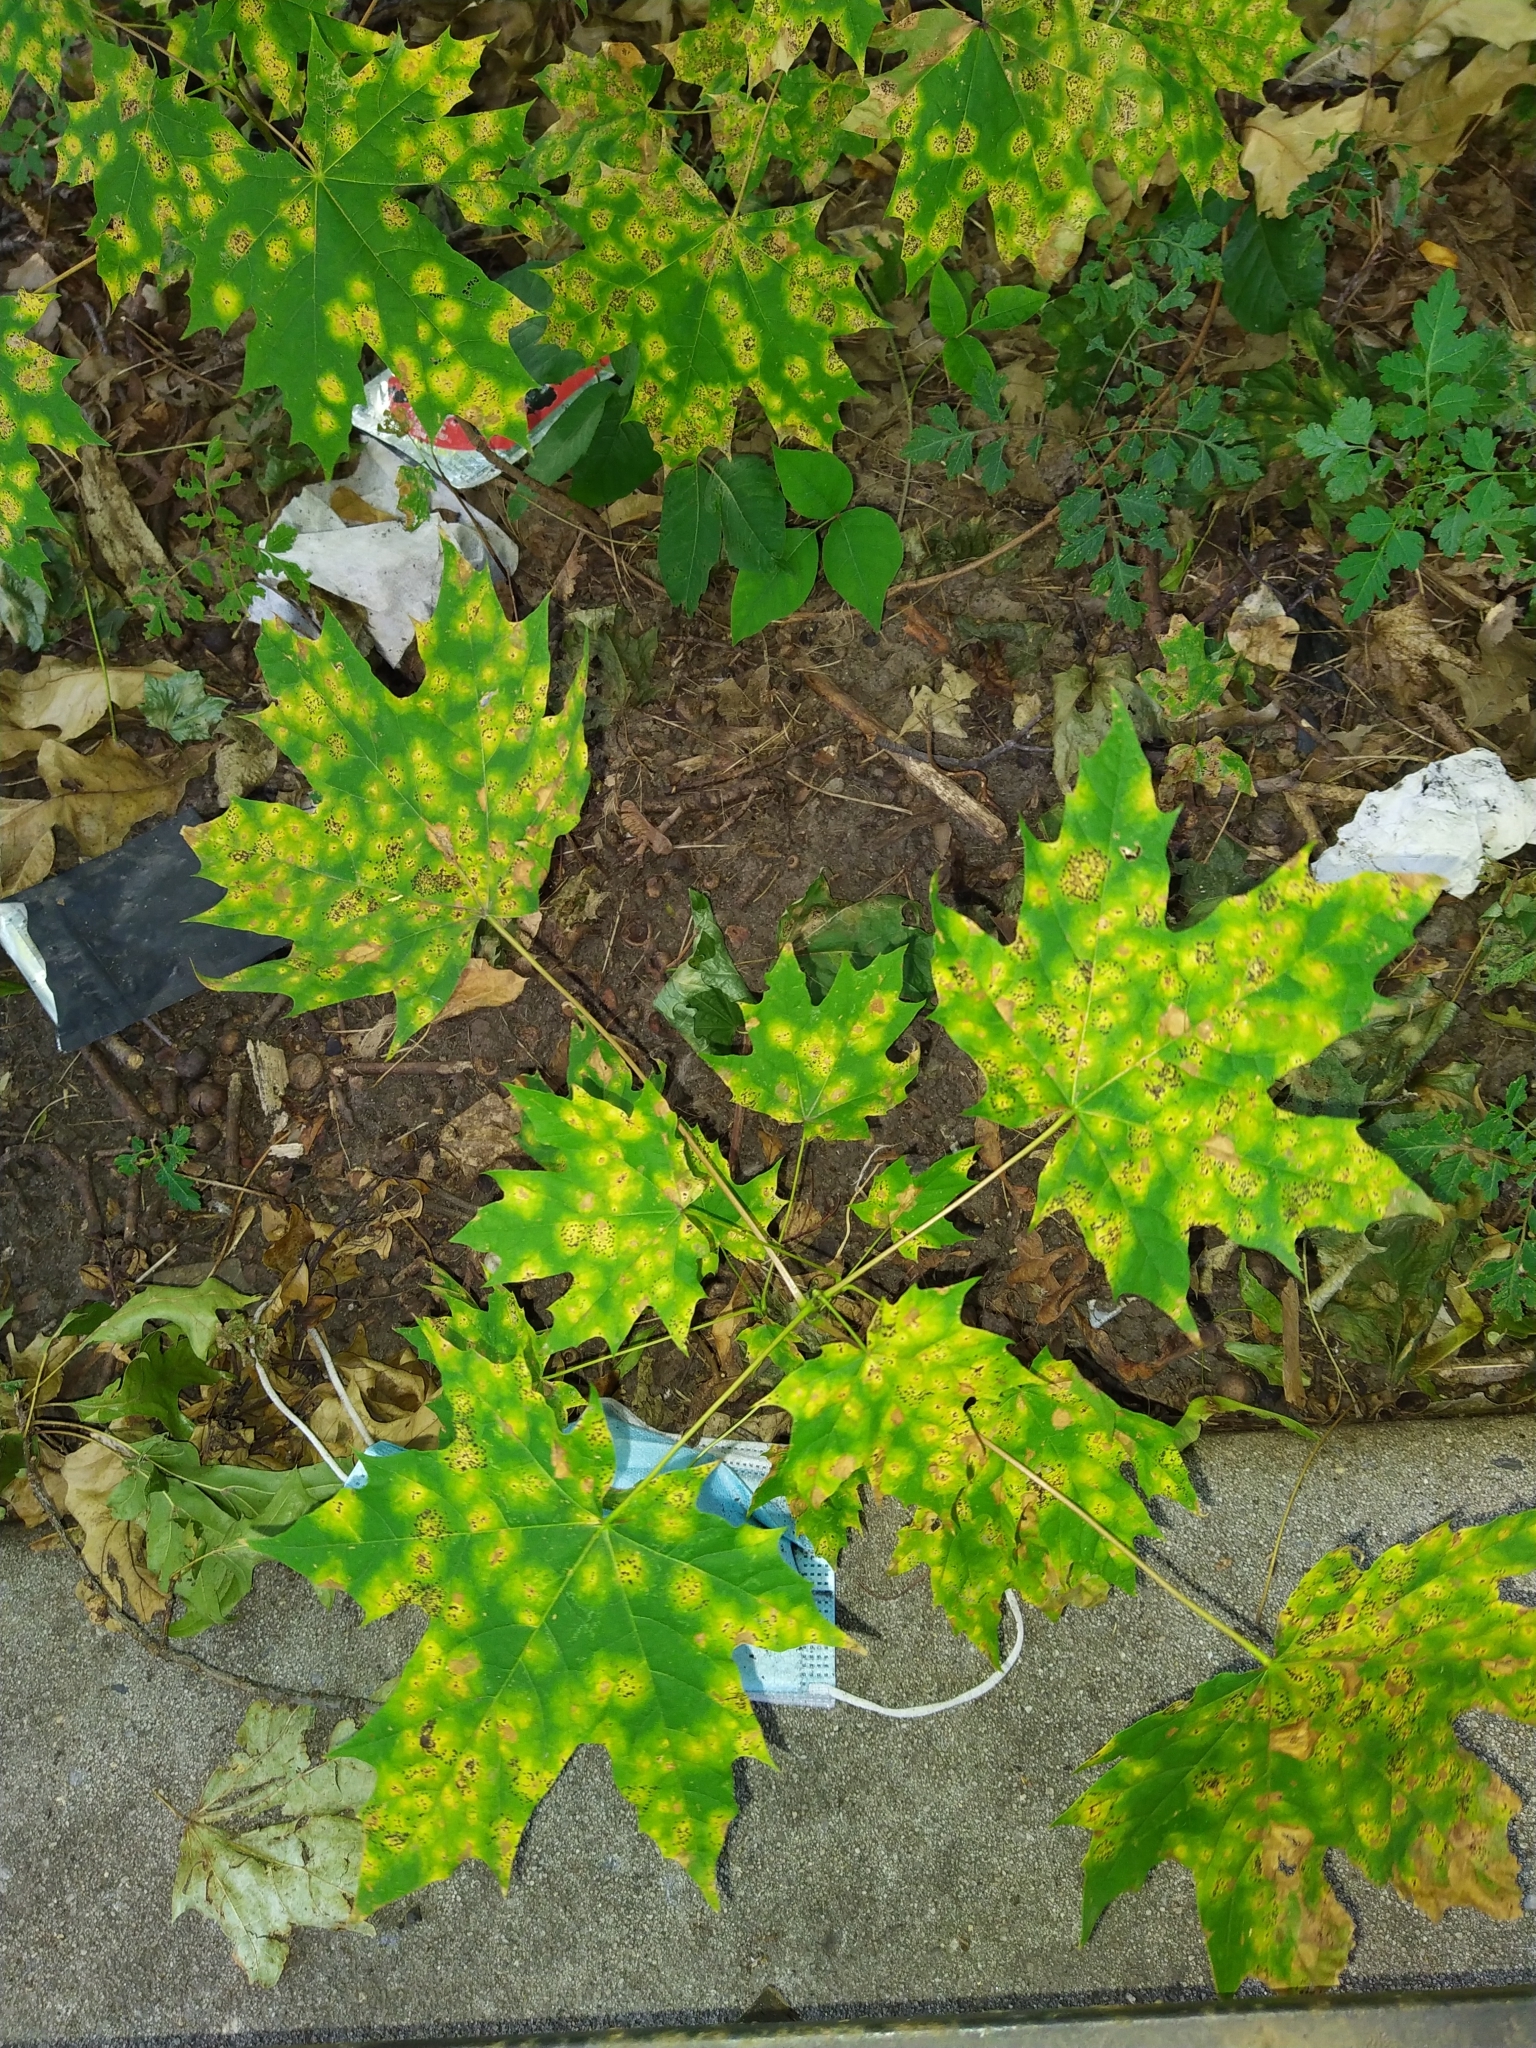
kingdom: Fungi
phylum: Ascomycota
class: Leotiomycetes
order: Rhytismatales
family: Rhytismataceae
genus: Rhytisma
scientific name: Rhytisma acerinum
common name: European tar spot
